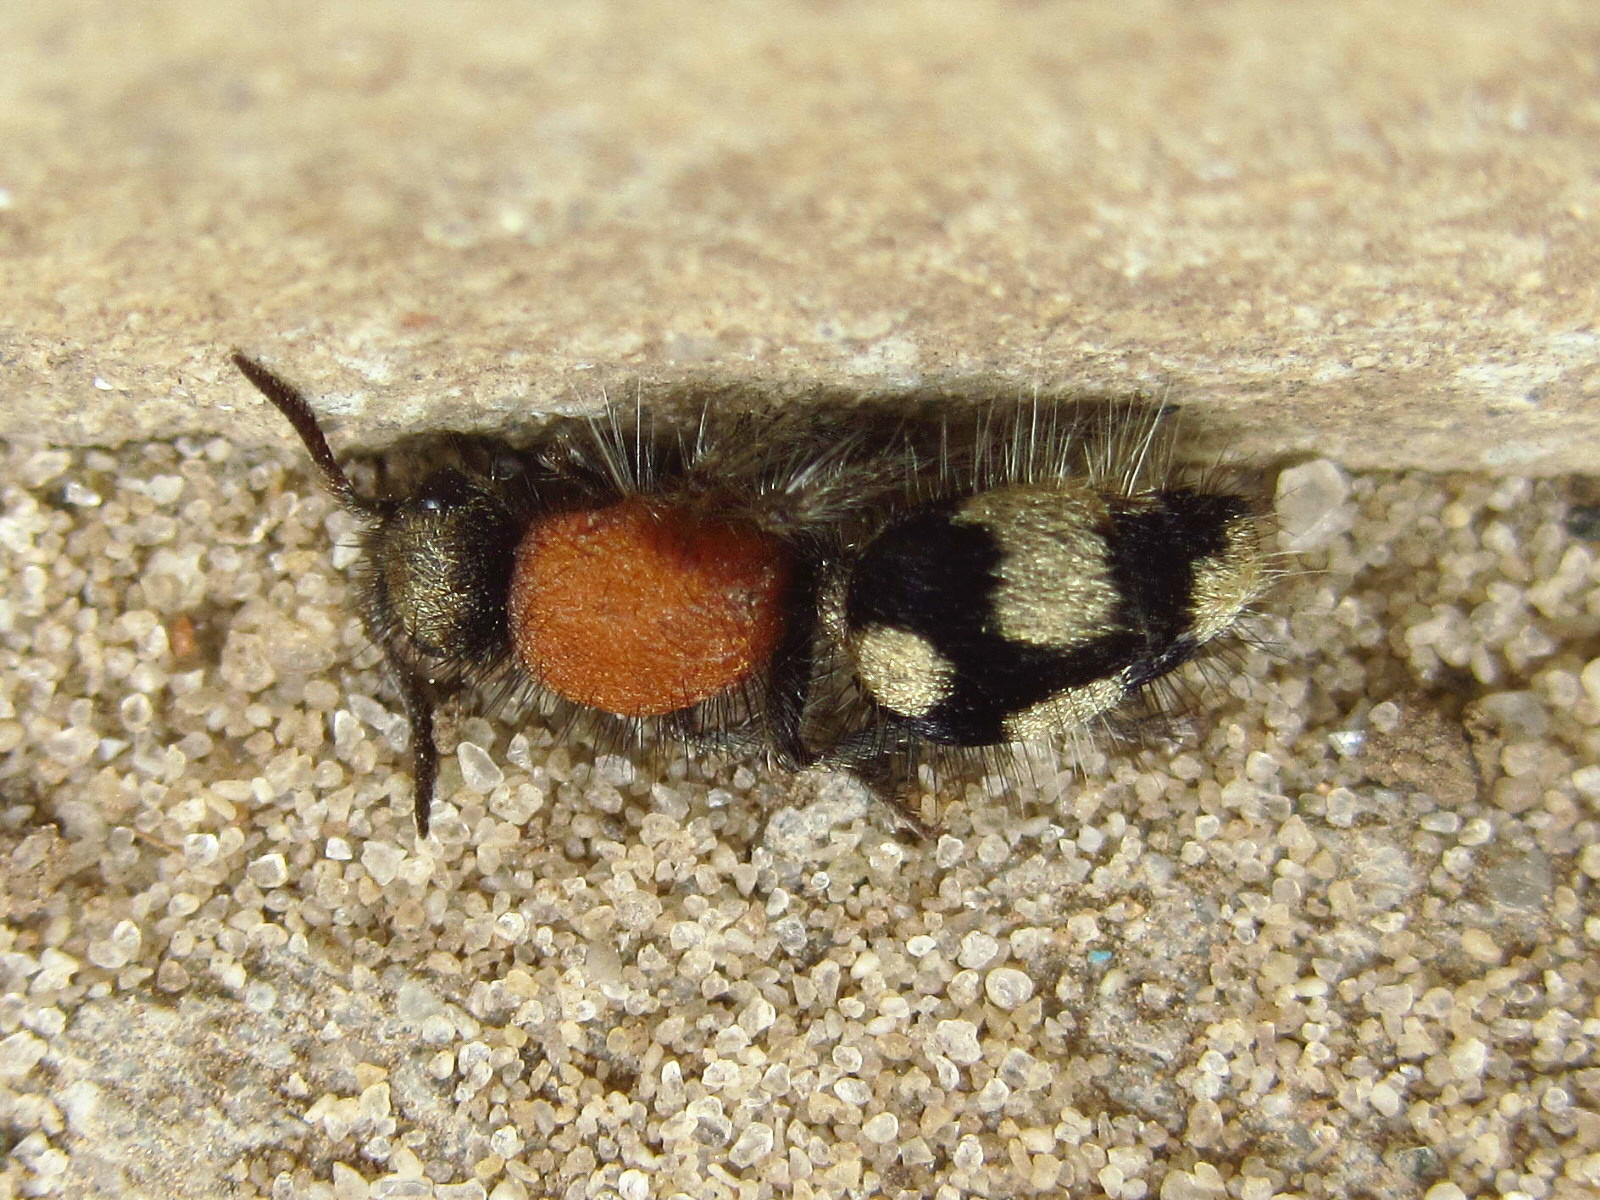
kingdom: Animalia
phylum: Arthropoda
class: Insecta
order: Hymenoptera
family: Mutillidae
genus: Dasylabris
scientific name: Dasylabris maura
